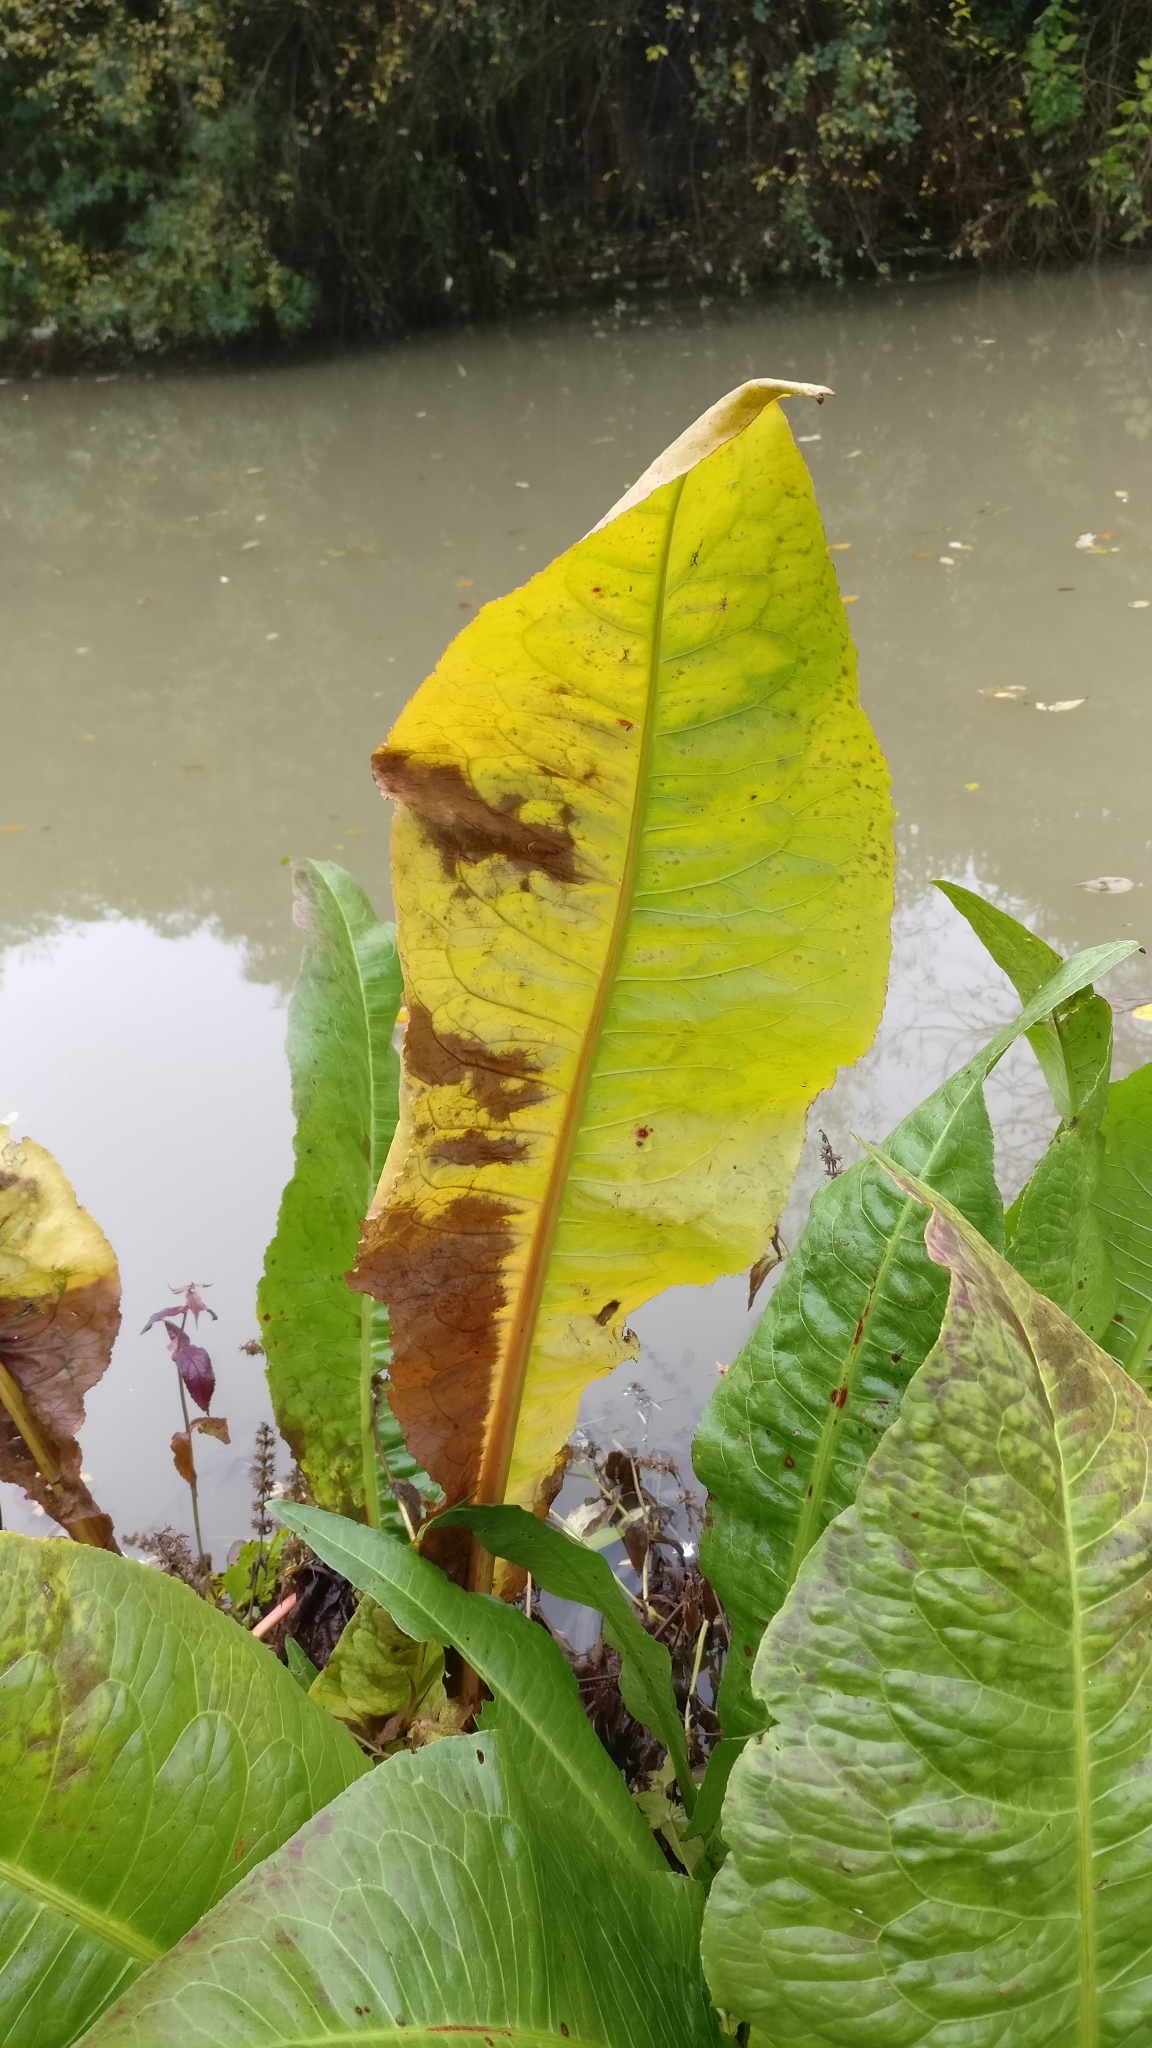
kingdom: Plantae
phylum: Tracheophyta
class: Magnoliopsida
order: Caryophyllales
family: Polygonaceae
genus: Rumex
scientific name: Rumex hydrolapathum
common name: Water dock
